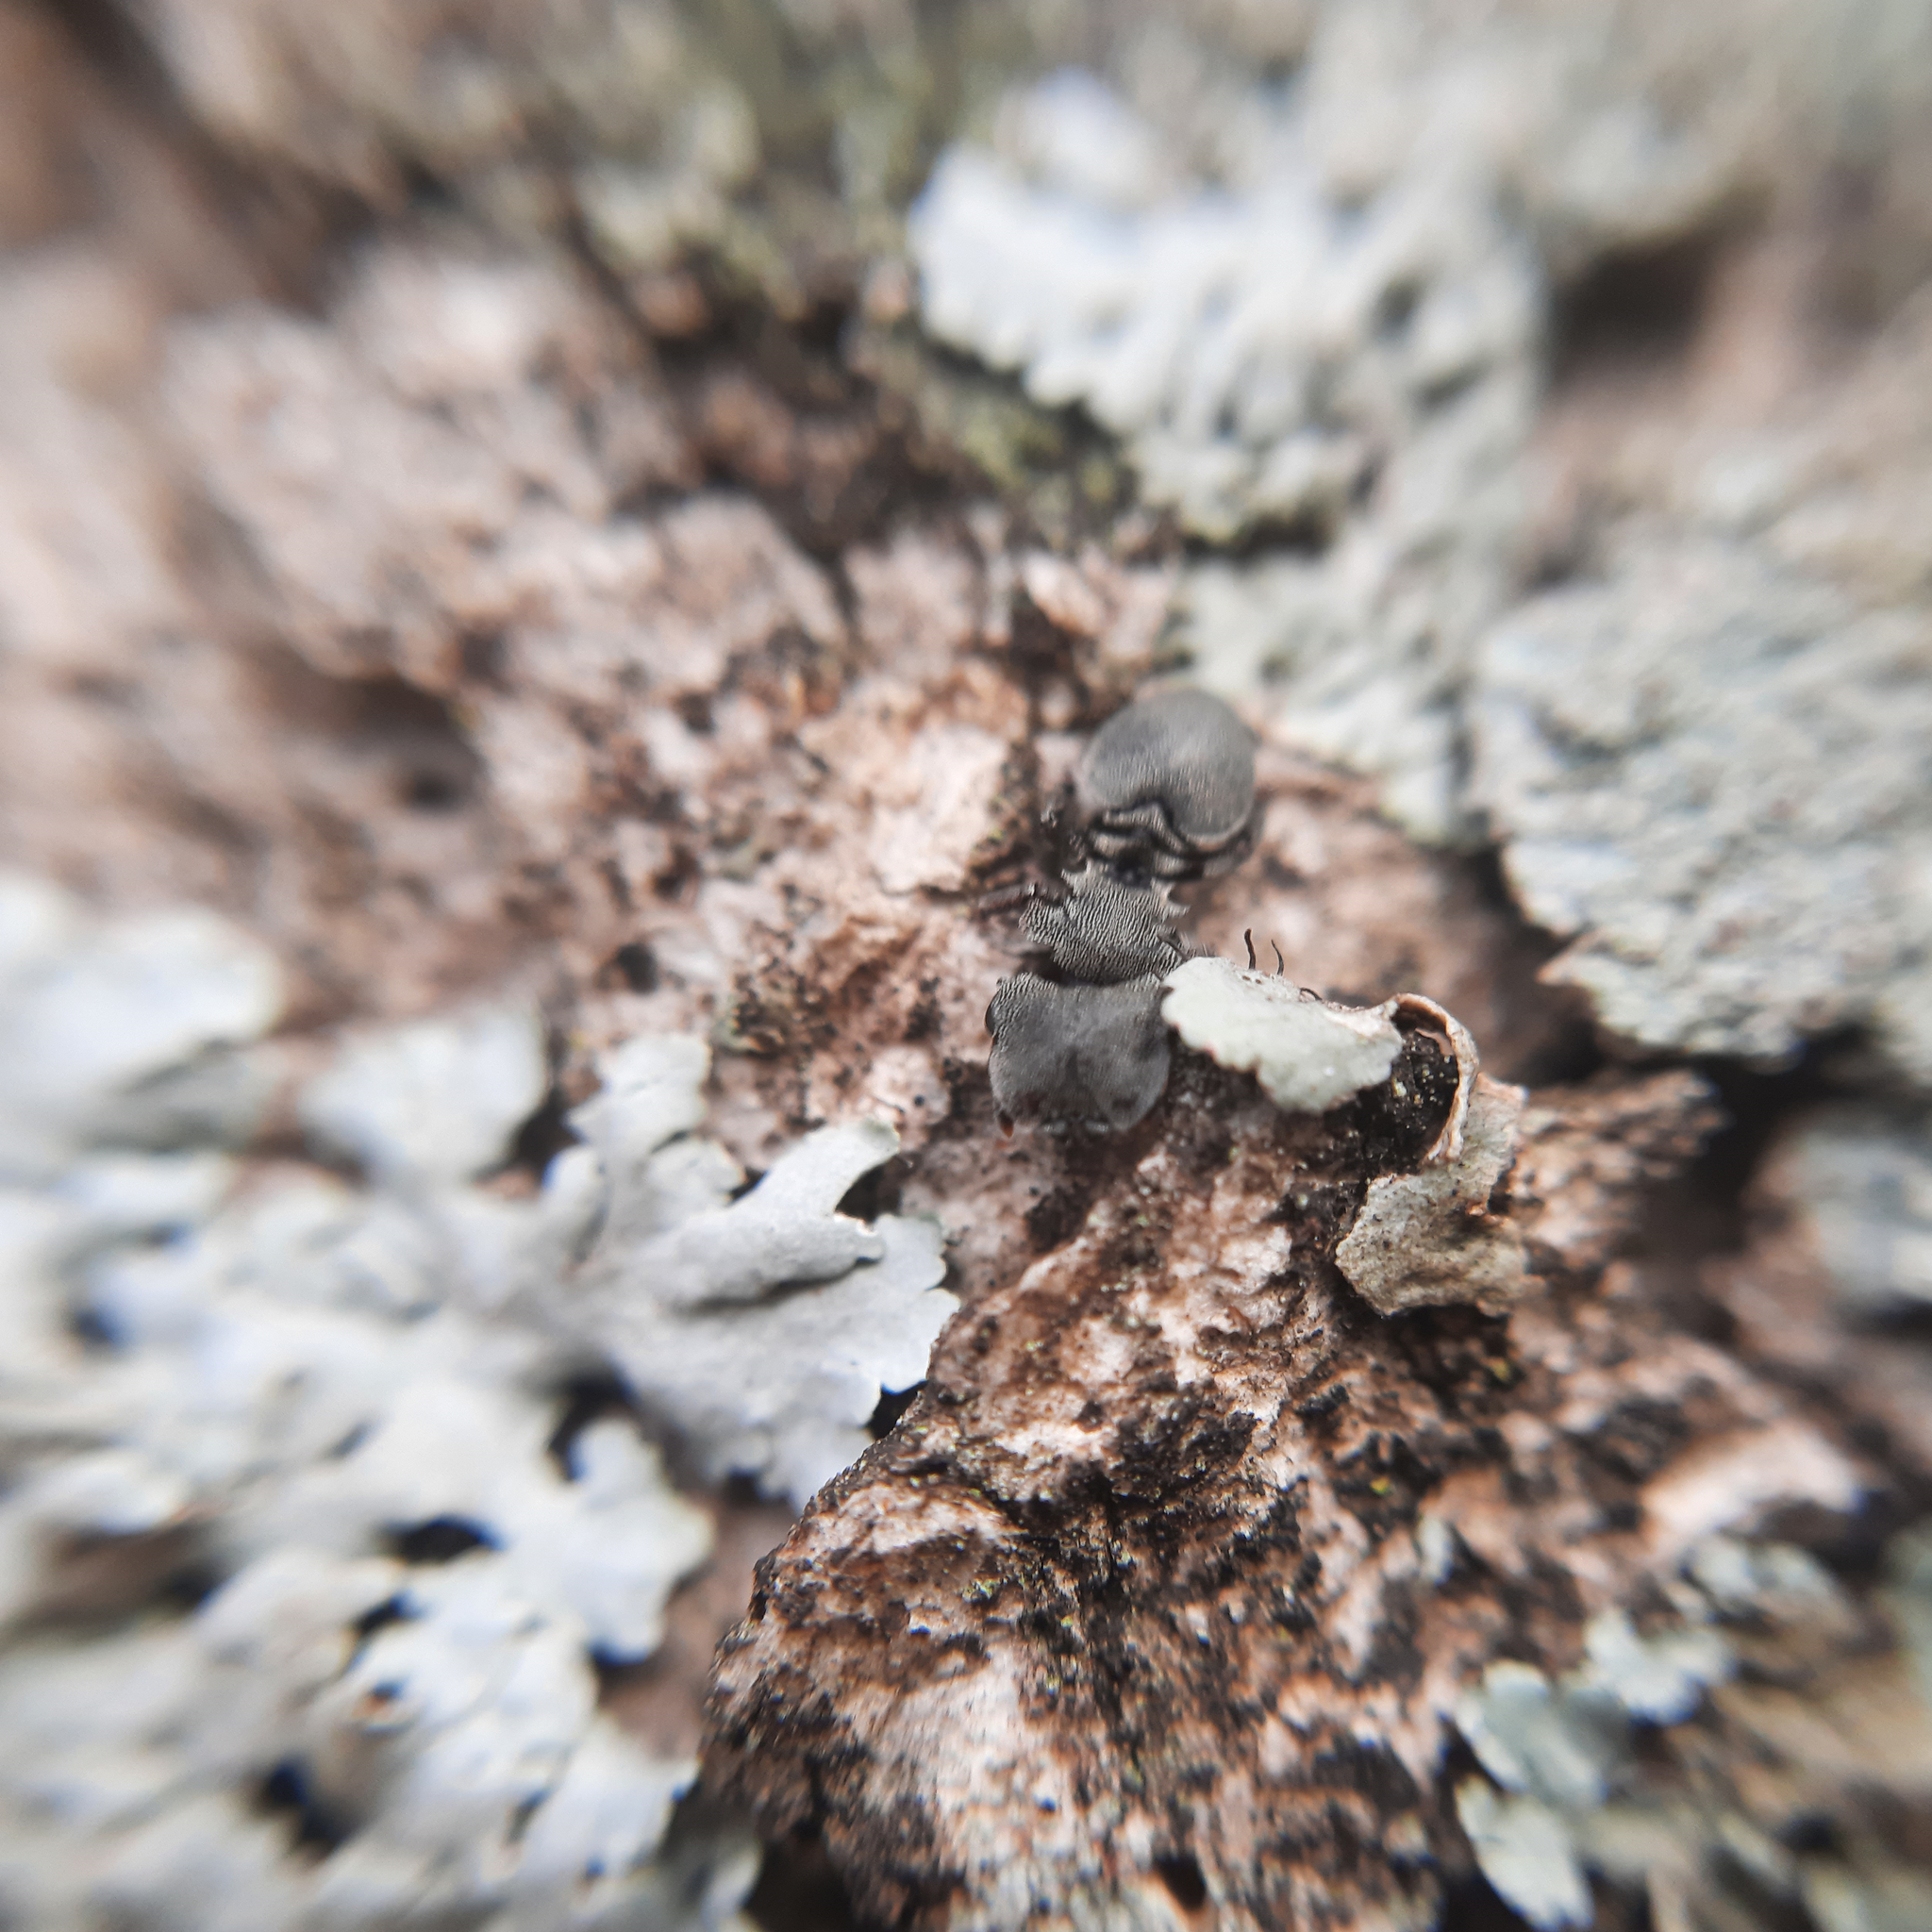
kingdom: Animalia
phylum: Arthropoda
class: Insecta
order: Hymenoptera
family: Formicidae
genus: Cephalotes
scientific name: Cephalotes borgmeieri
